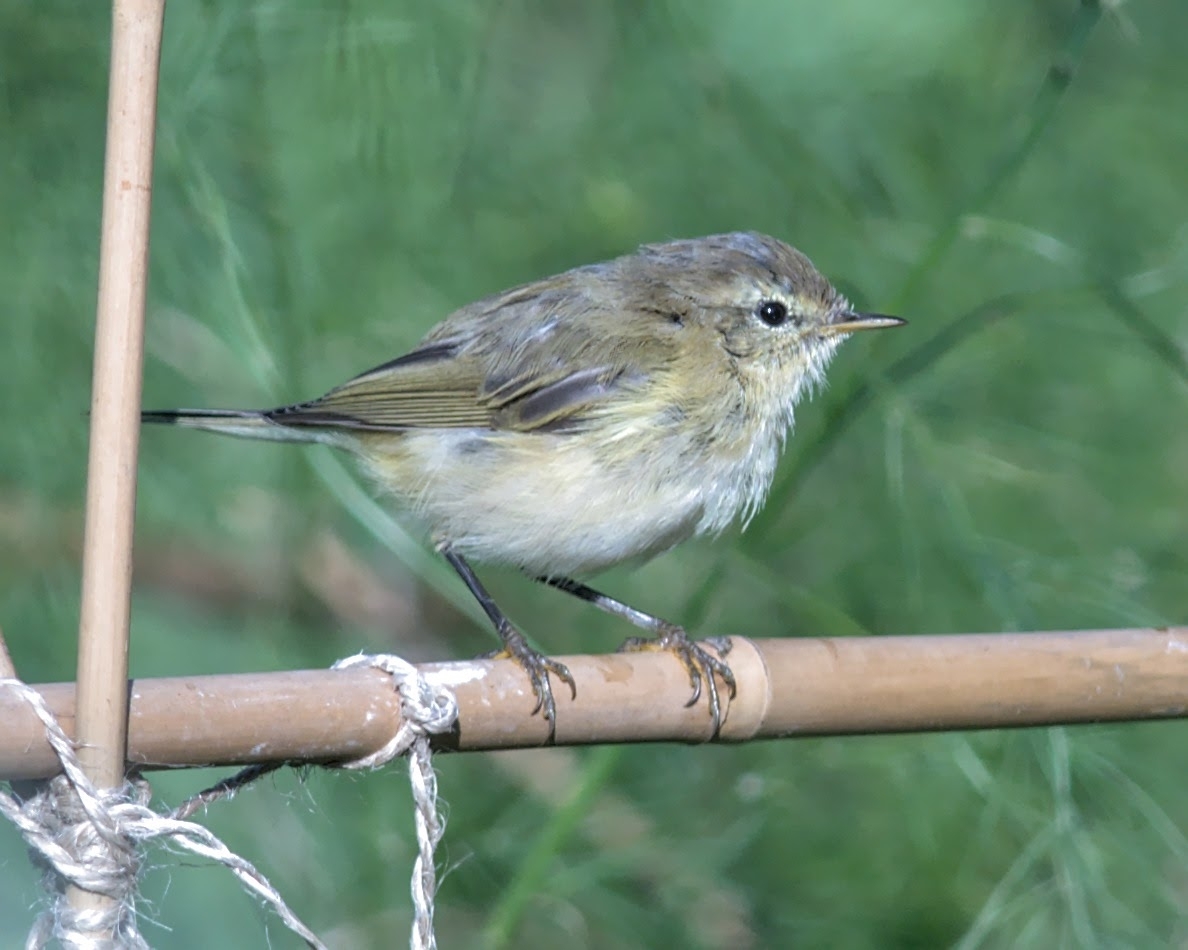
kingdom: Animalia
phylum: Chordata
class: Aves
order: Passeriformes
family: Phylloscopidae
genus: Phylloscopus
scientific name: Phylloscopus collybita
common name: Common chiffchaff
